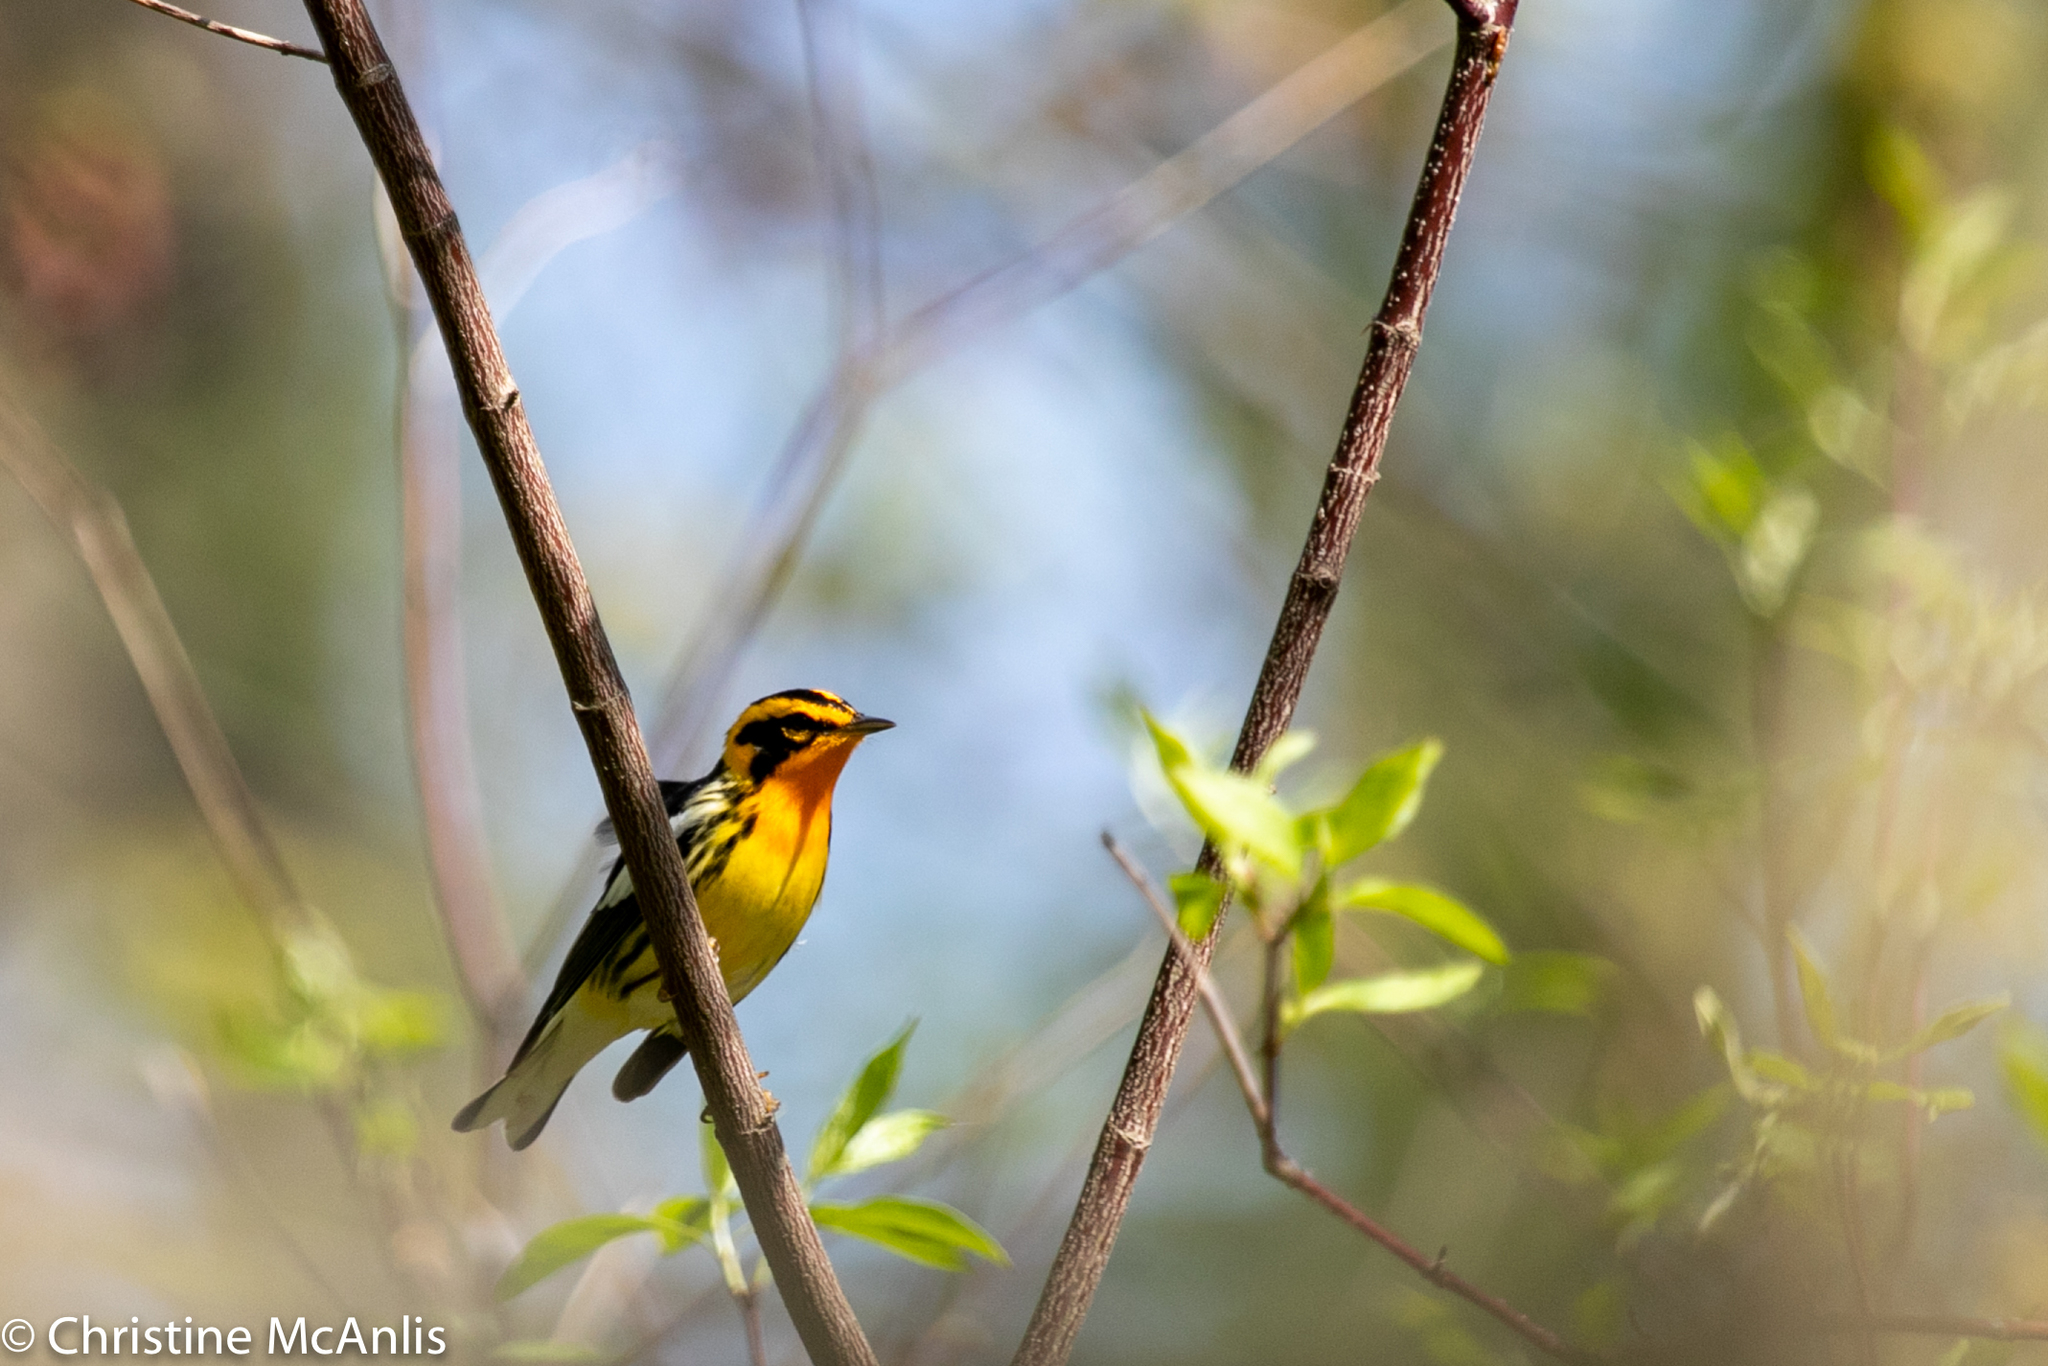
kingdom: Animalia
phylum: Chordata
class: Aves
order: Passeriformes
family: Parulidae
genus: Setophaga
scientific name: Setophaga fusca
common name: Blackburnian warbler
